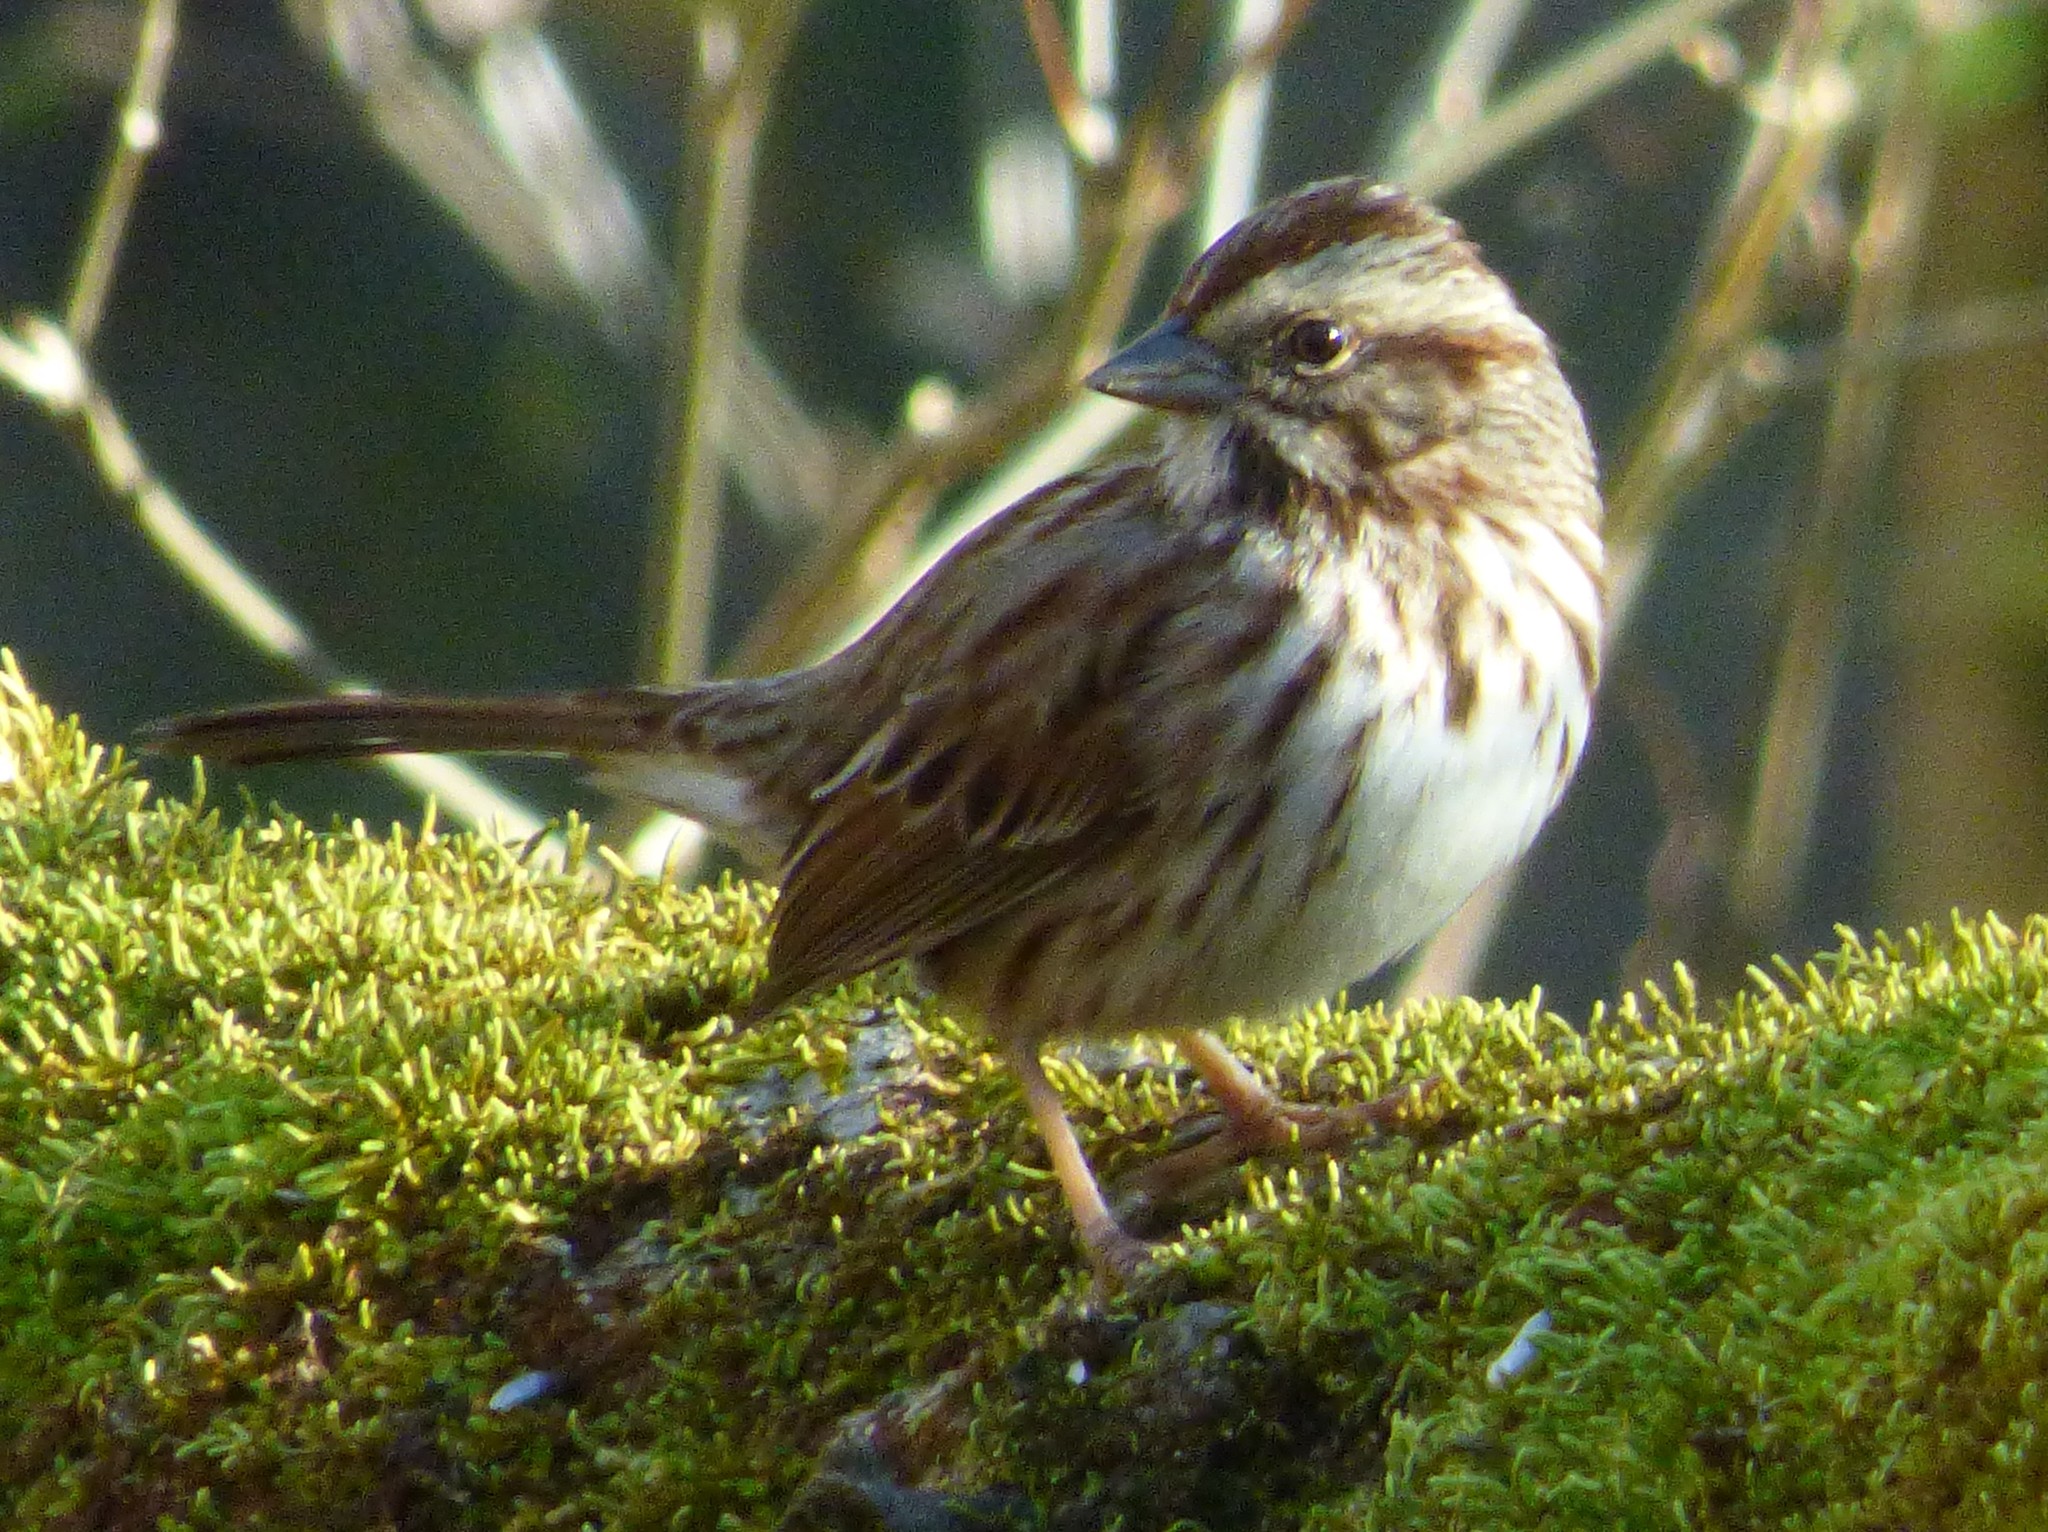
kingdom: Animalia
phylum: Chordata
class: Aves
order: Passeriformes
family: Passerellidae
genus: Melospiza
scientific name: Melospiza melodia
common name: Song sparrow
